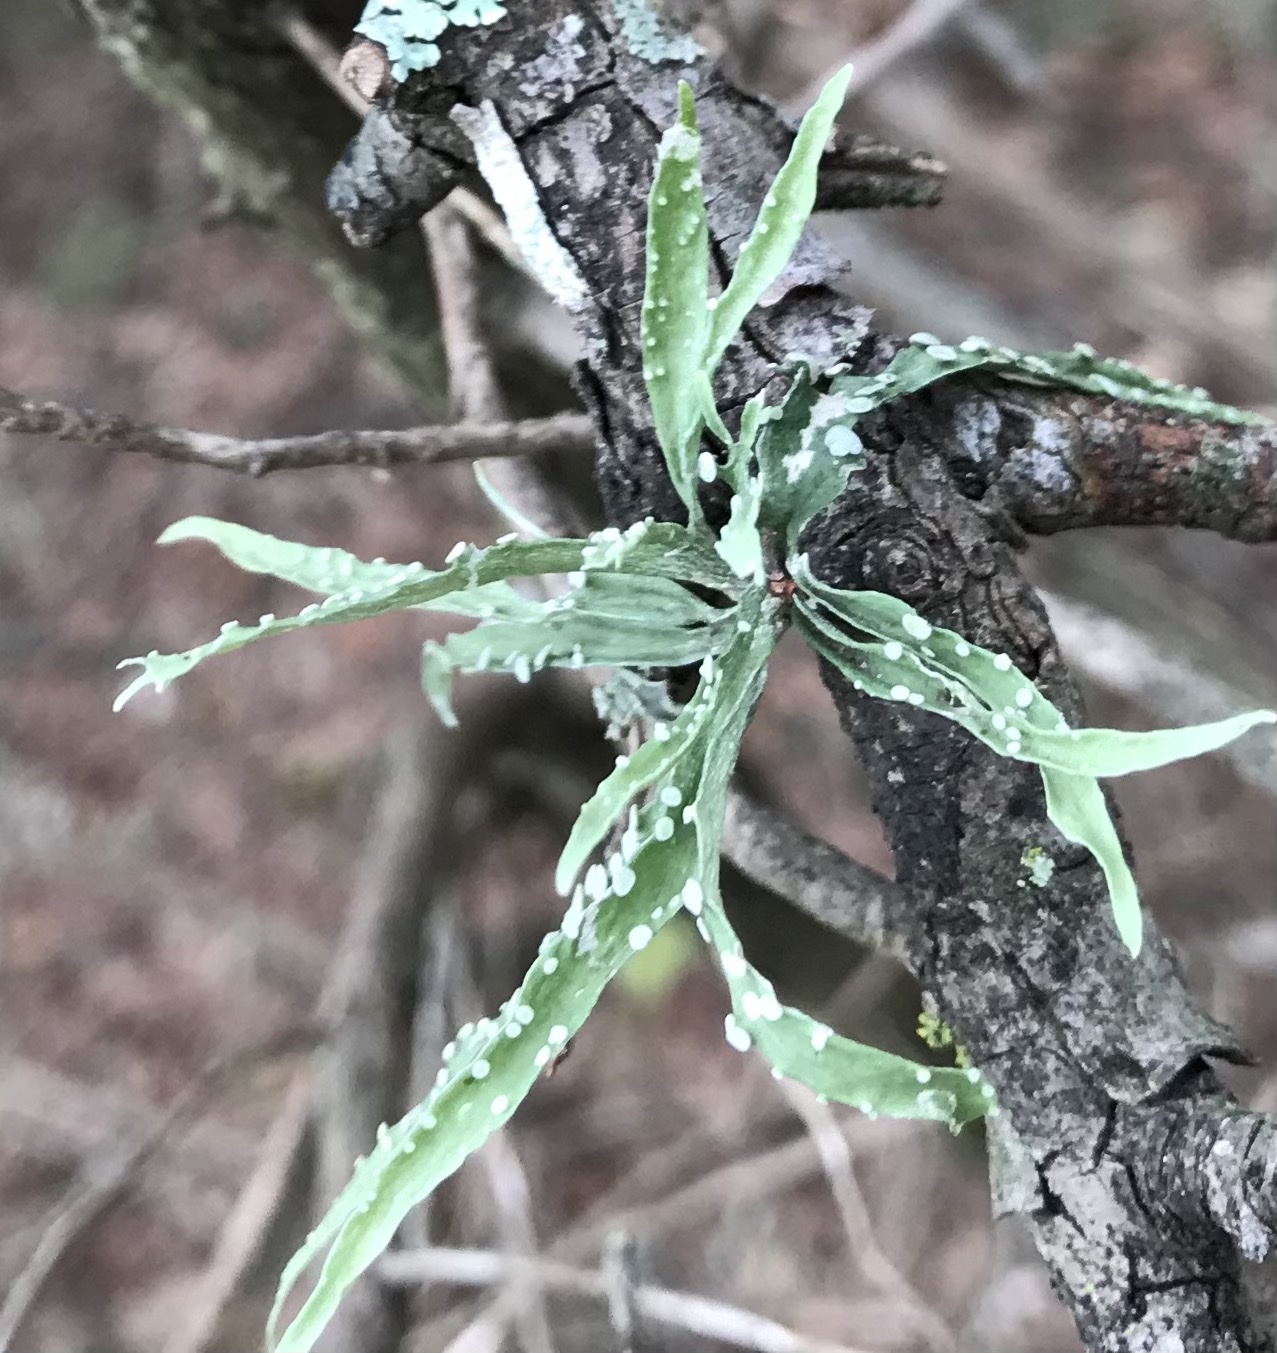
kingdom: Fungi
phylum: Ascomycota
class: Lecanoromycetes
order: Lecanorales
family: Ramalinaceae
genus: Ramalina
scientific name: Ramalina celastri
